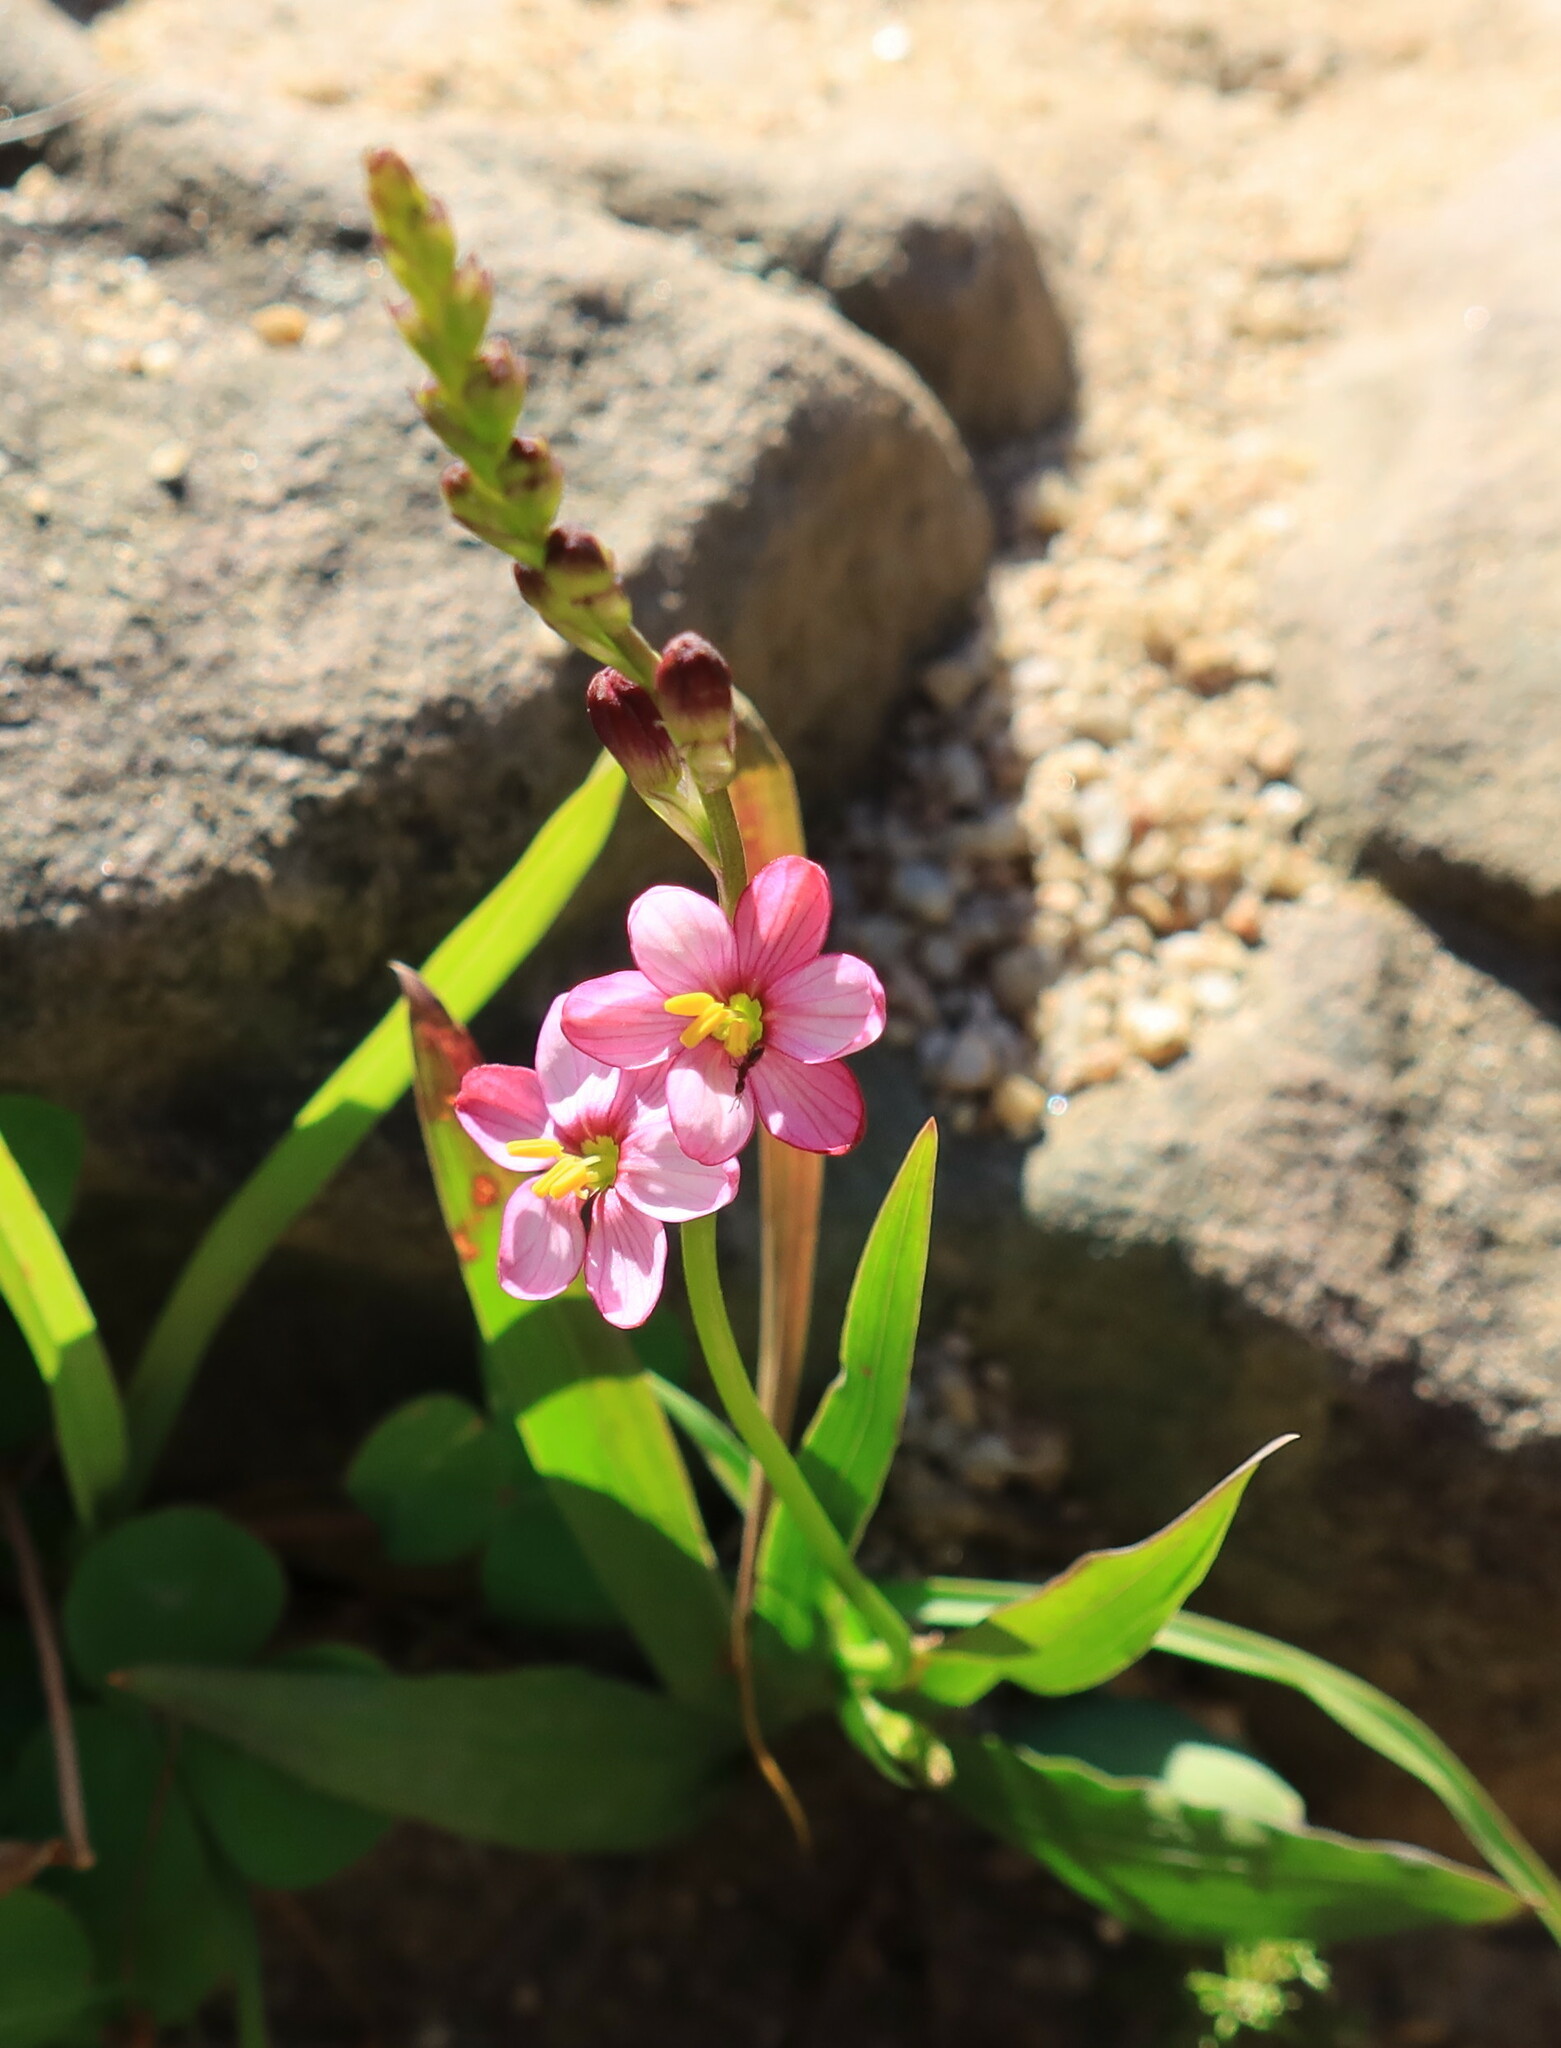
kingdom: Plantae
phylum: Tracheophyta
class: Liliopsida
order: Asparagales
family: Iridaceae
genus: Ixia
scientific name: Ixia scillaris
